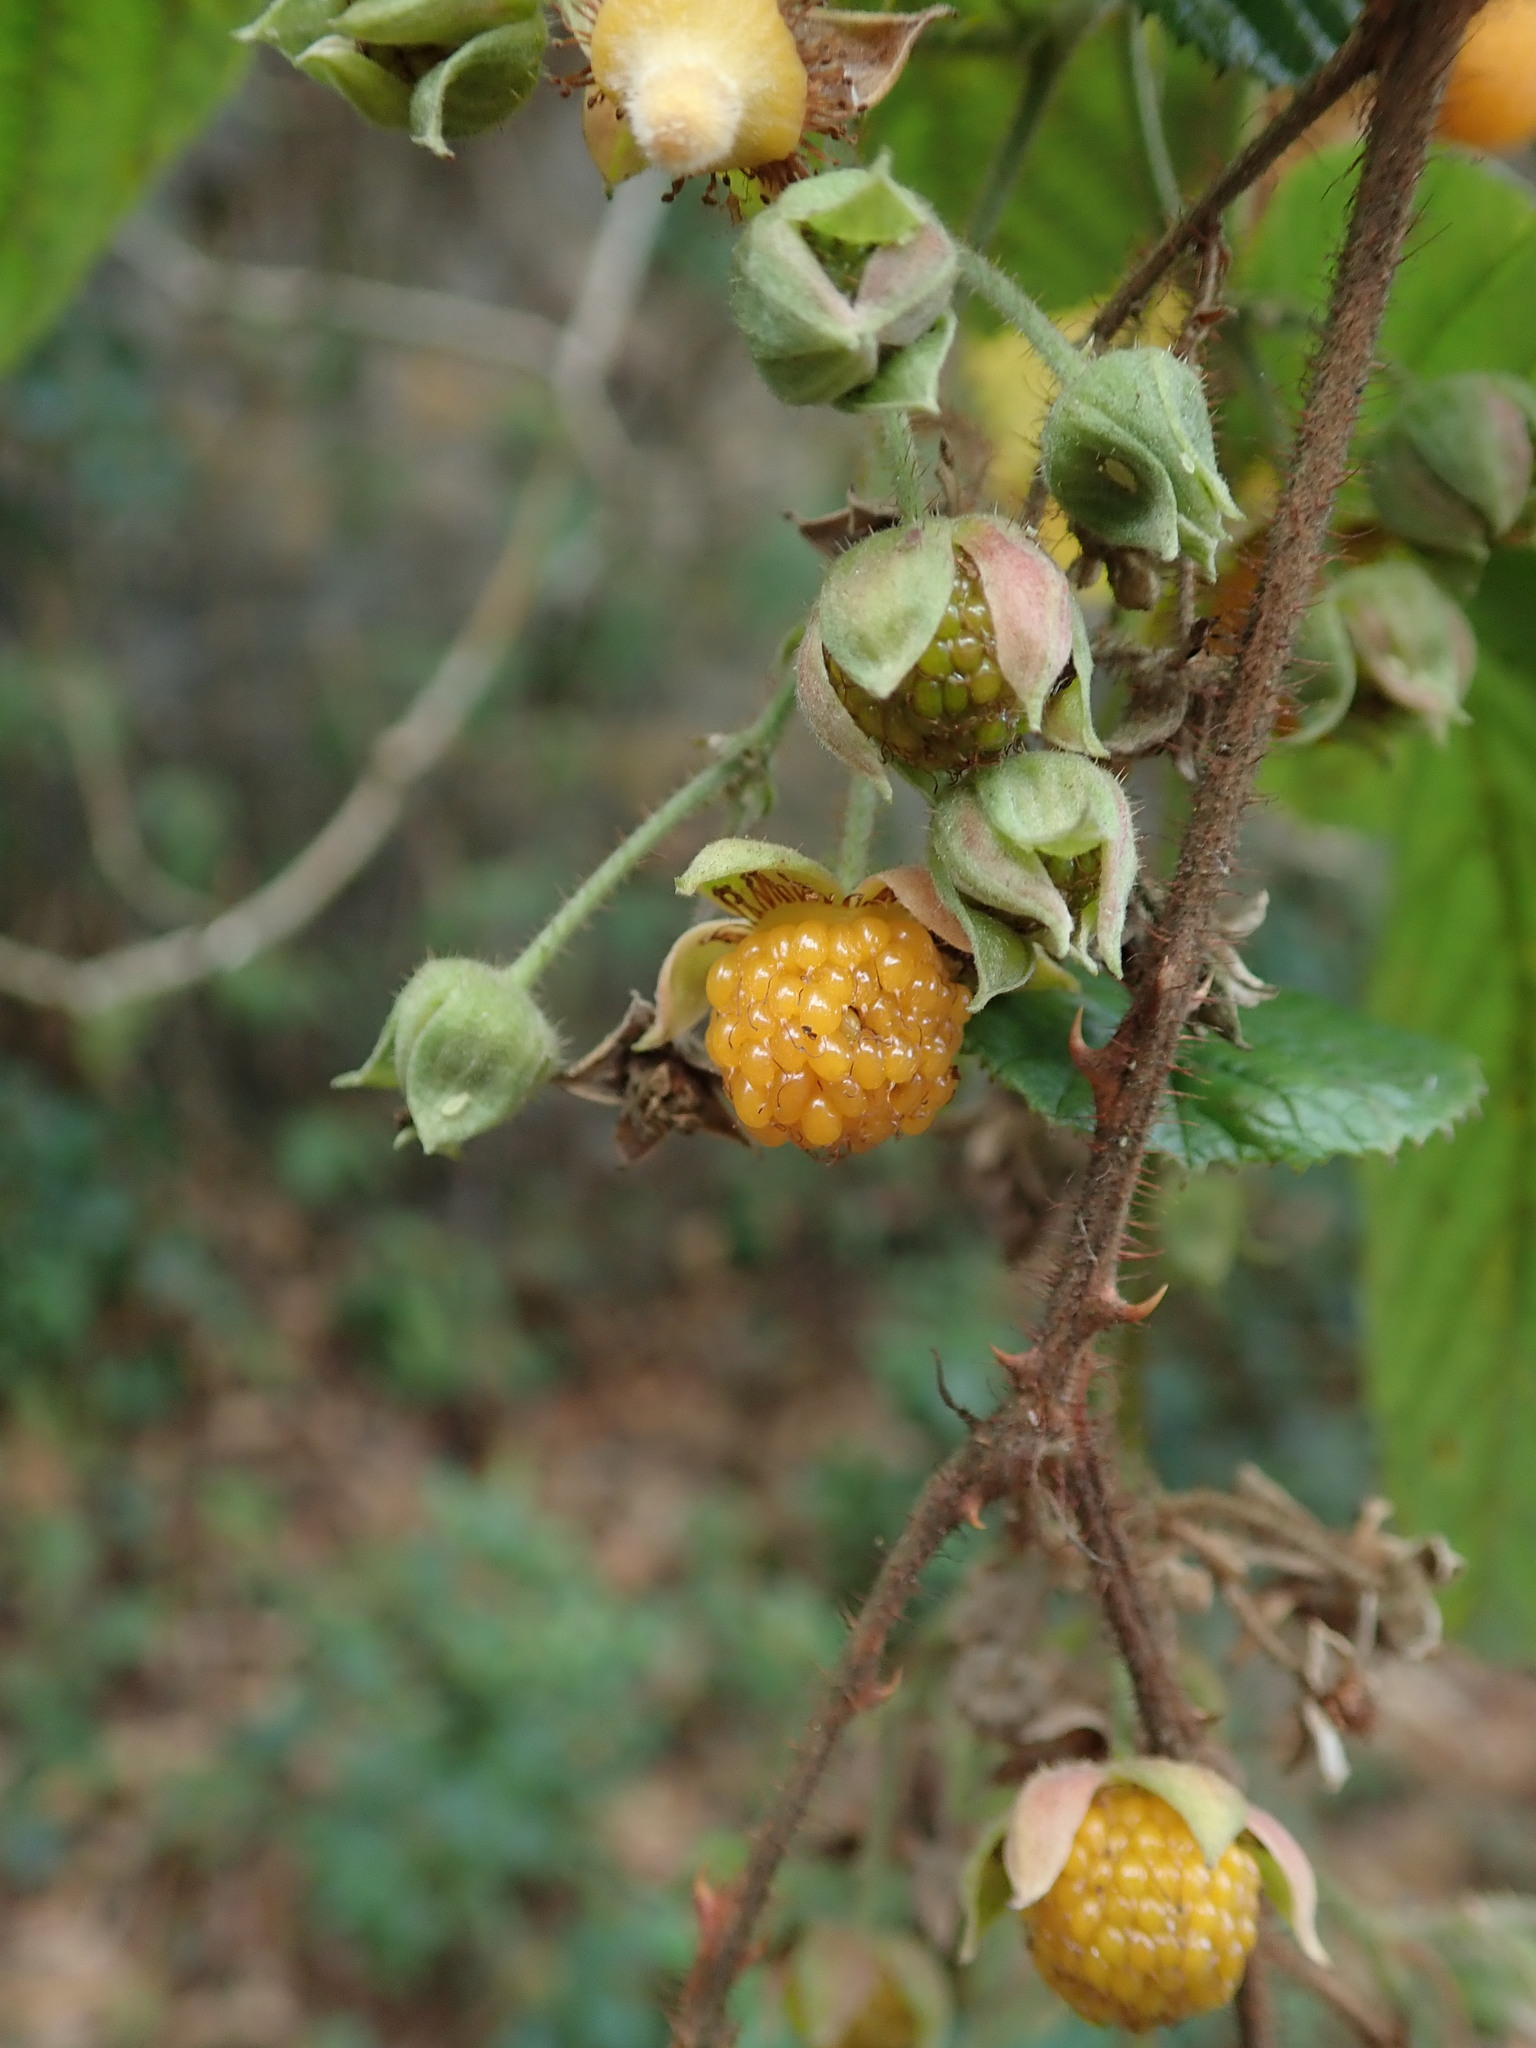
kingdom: Plantae
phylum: Tracheophyta
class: Magnoliopsida
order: Rosales
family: Rosaceae
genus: Rubus
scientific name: Rubus ellipticus
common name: Cheeseberry
